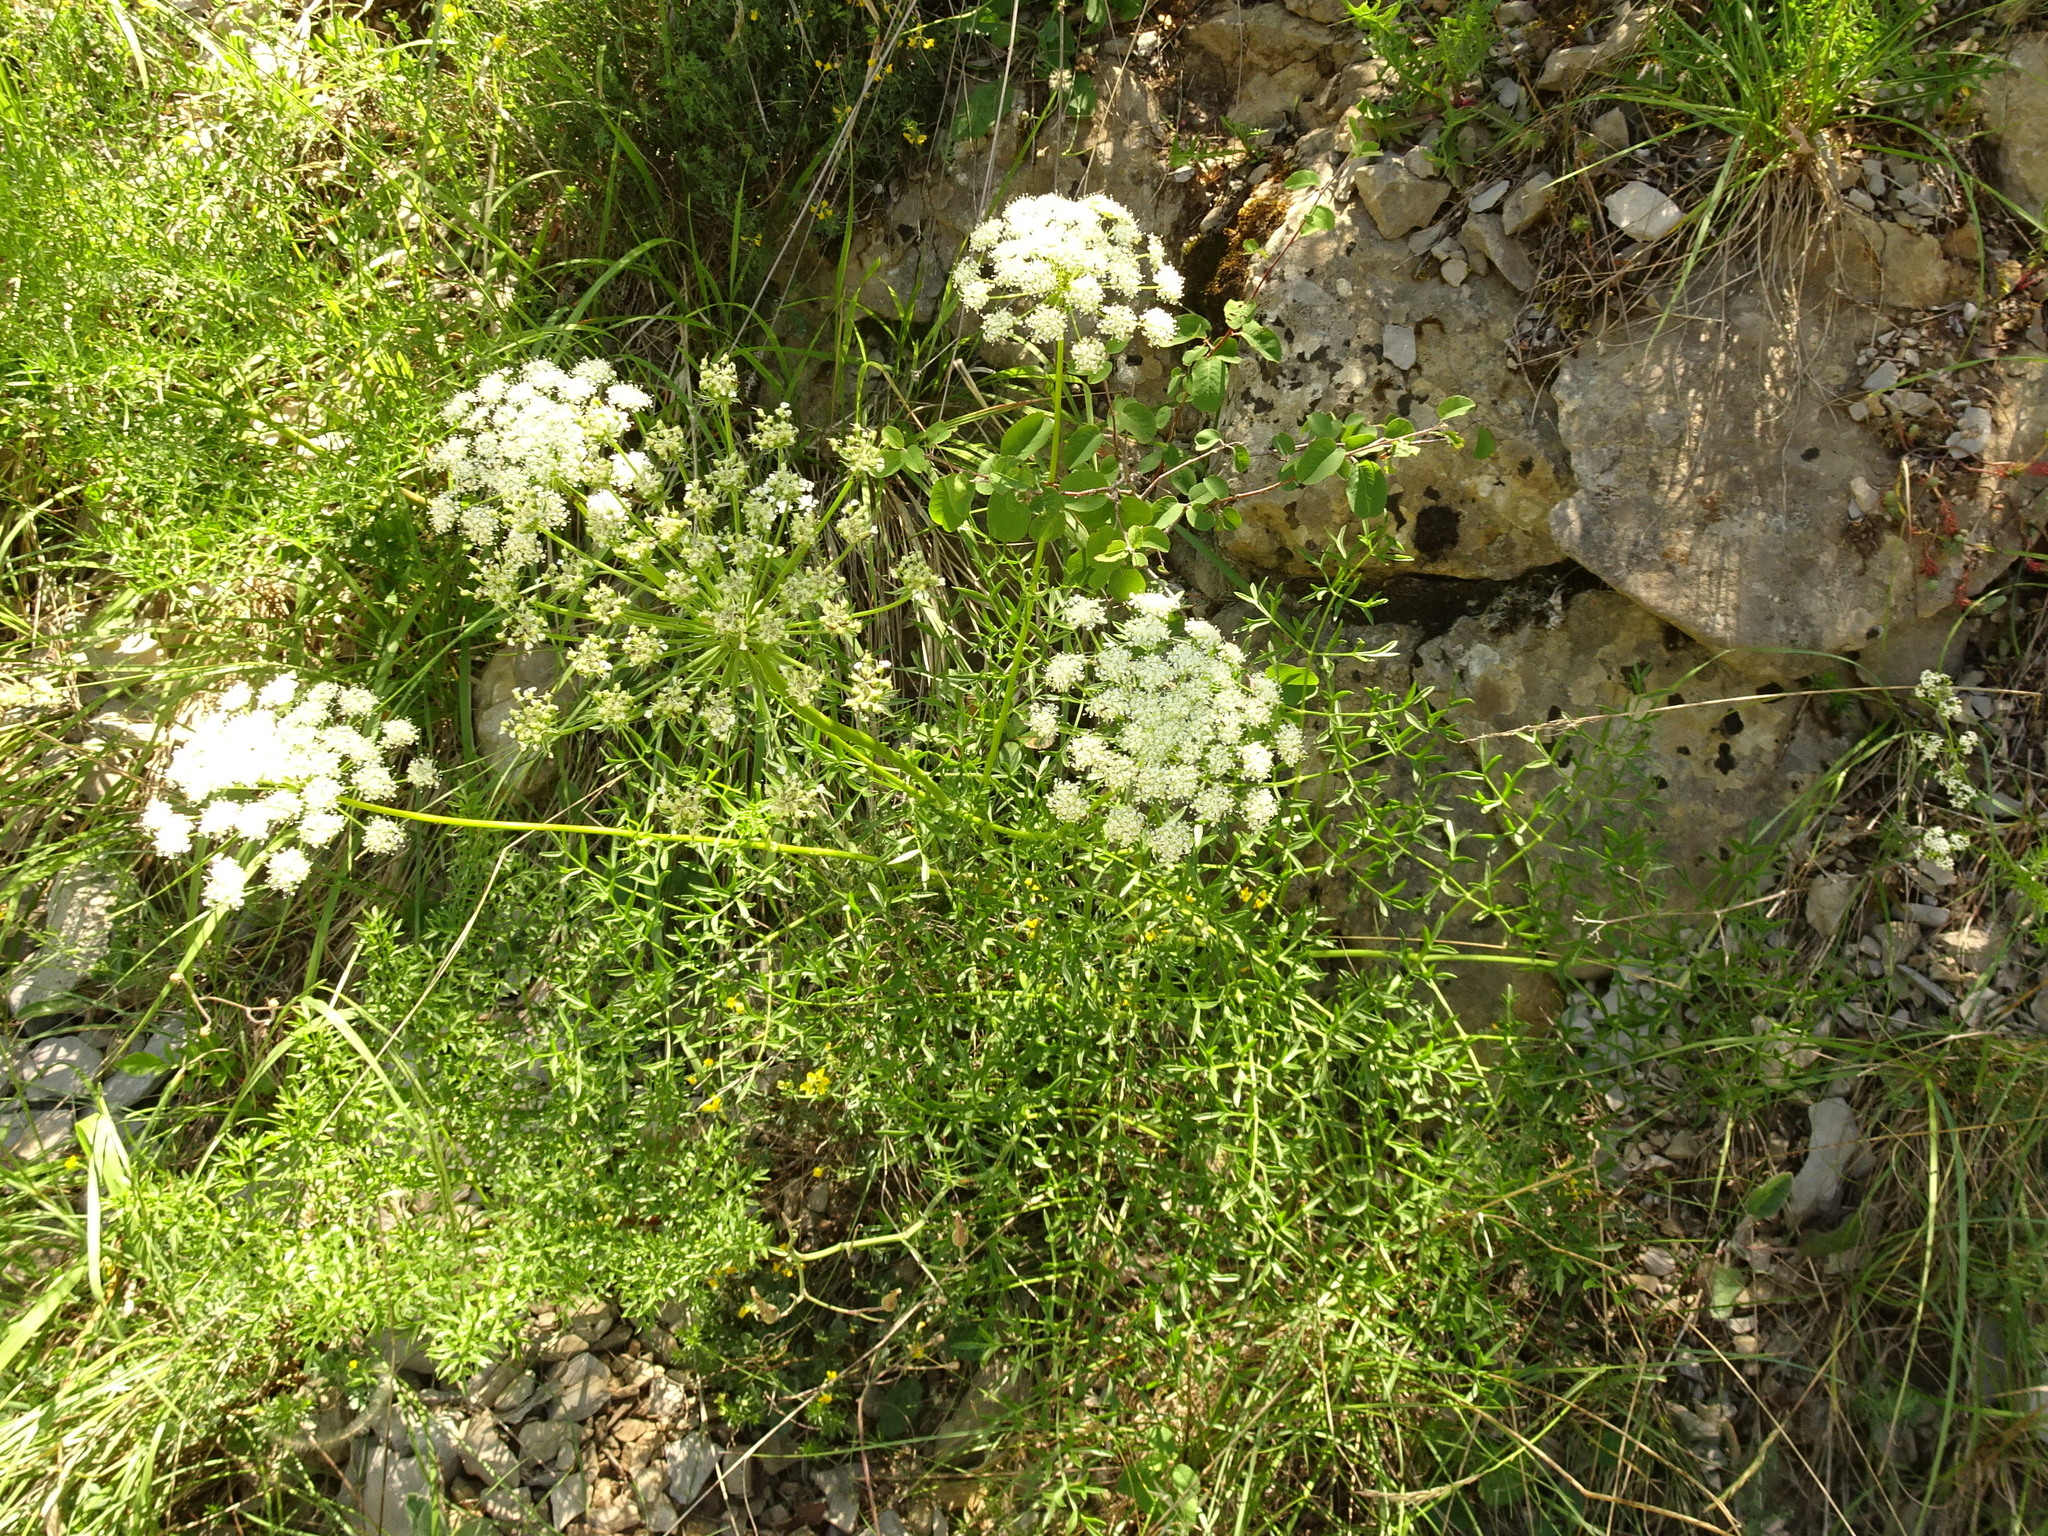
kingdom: Plantae
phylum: Tracheophyta
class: Magnoliopsida
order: Apiales
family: Apiaceae
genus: Laserpitium
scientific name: Laserpitium gallicum
